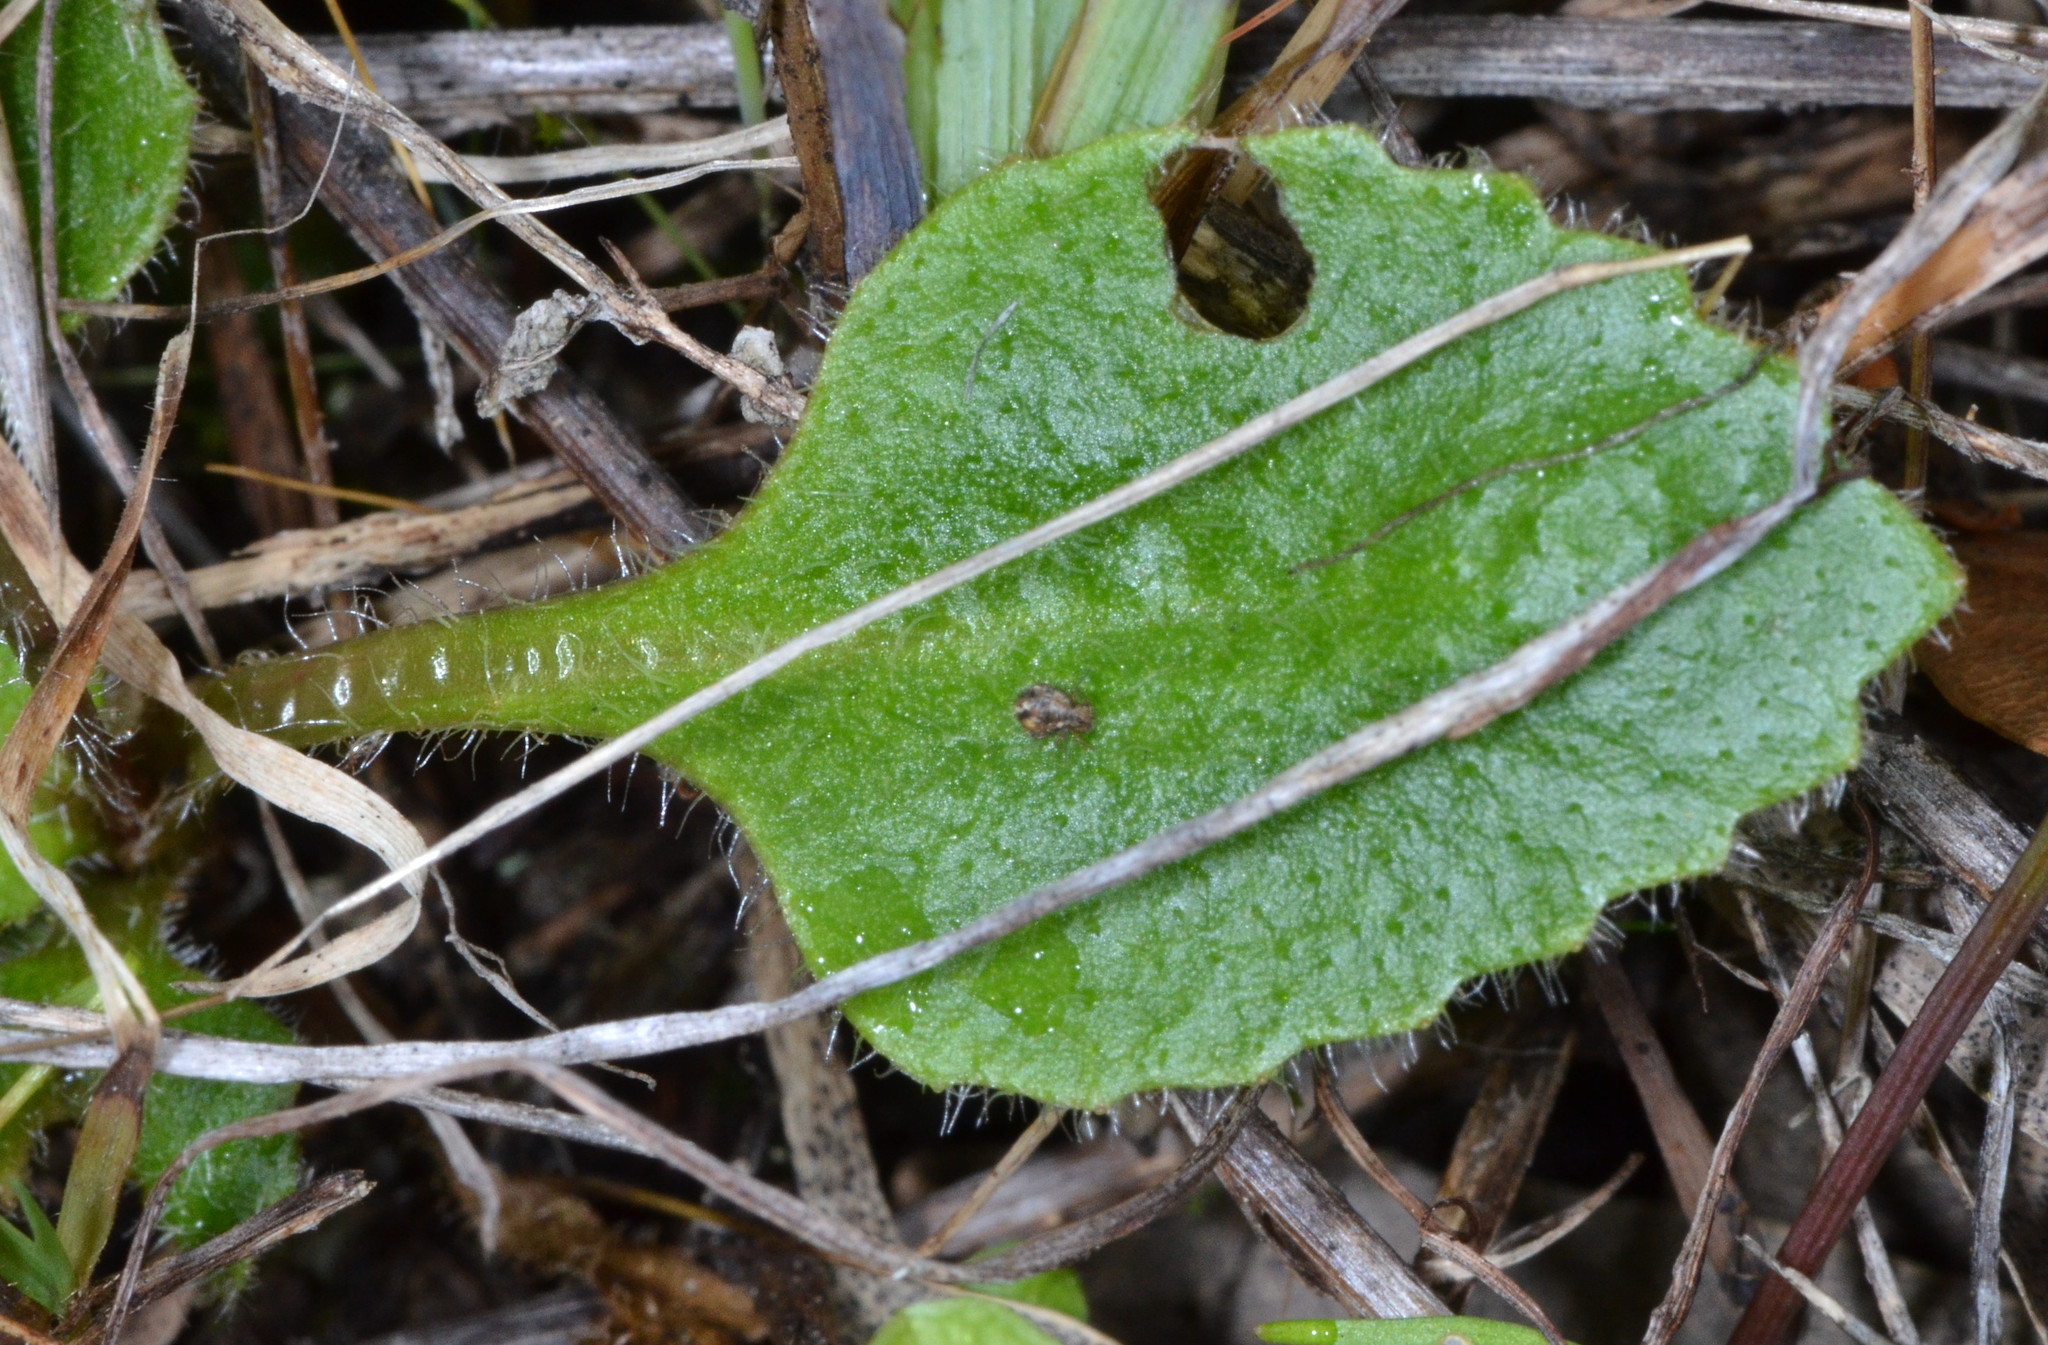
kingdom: Plantae
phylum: Tracheophyta
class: Magnoliopsida
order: Saxifragales
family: Saxifragaceae
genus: Micranthes
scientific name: Micranthes californica
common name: California saxifrage
